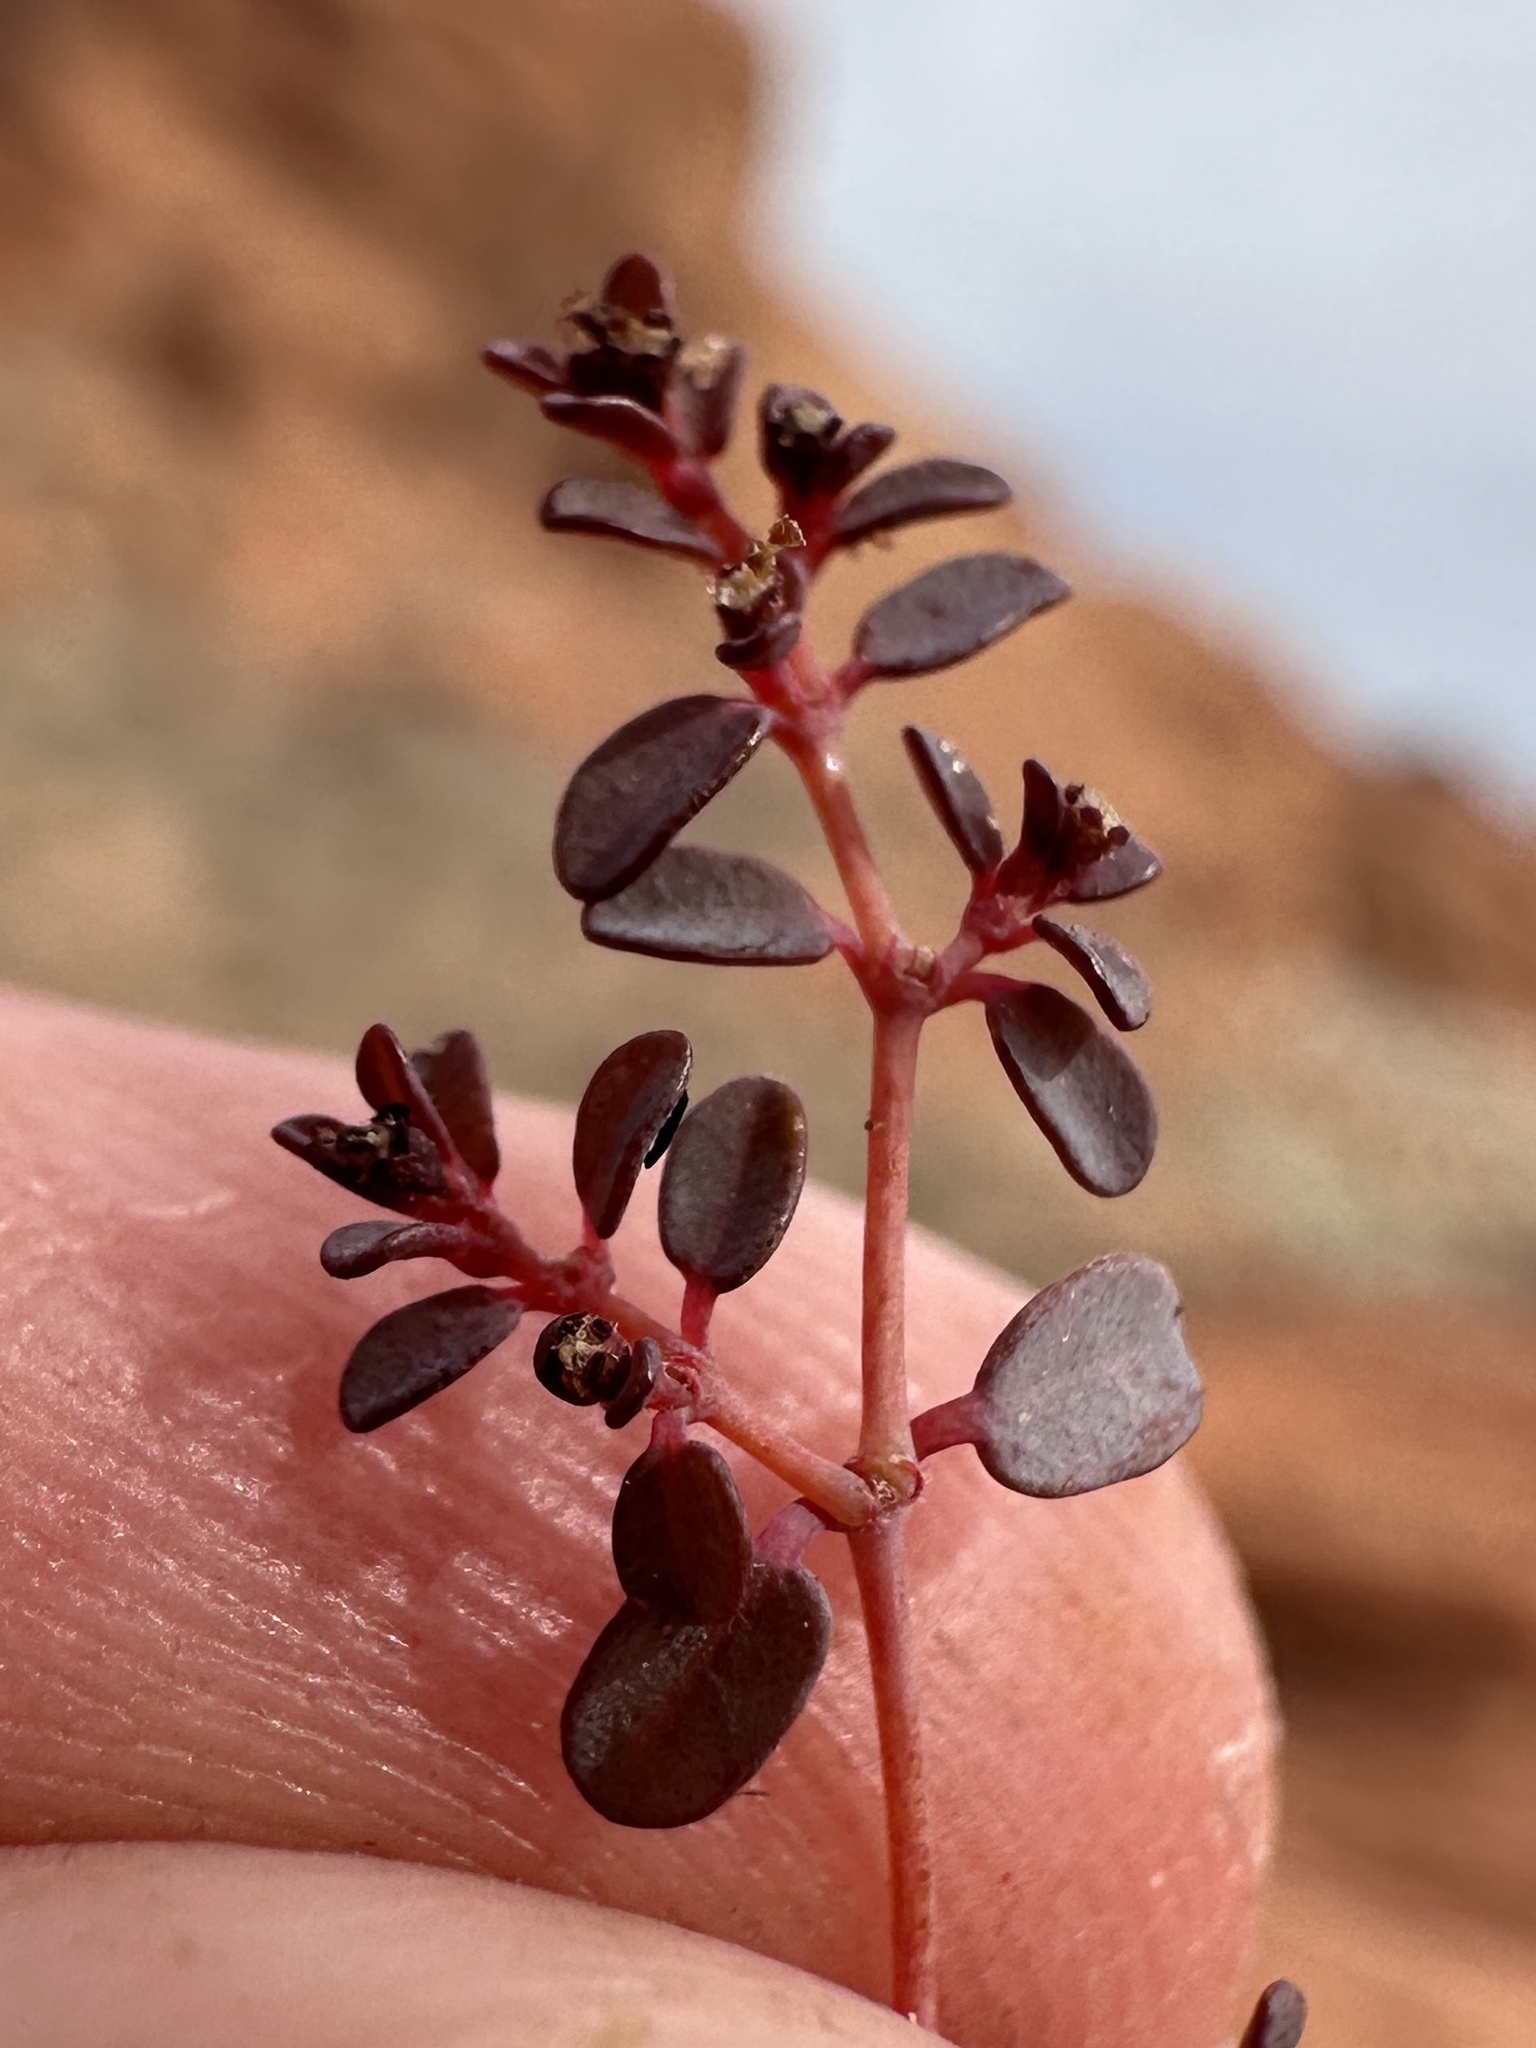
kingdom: Plantae
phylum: Tracheophyta
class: Magnoliopsida
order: Malpighiales
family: Euphorbiaceae
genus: Euphorbia
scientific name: Euphorbia polycarpa
